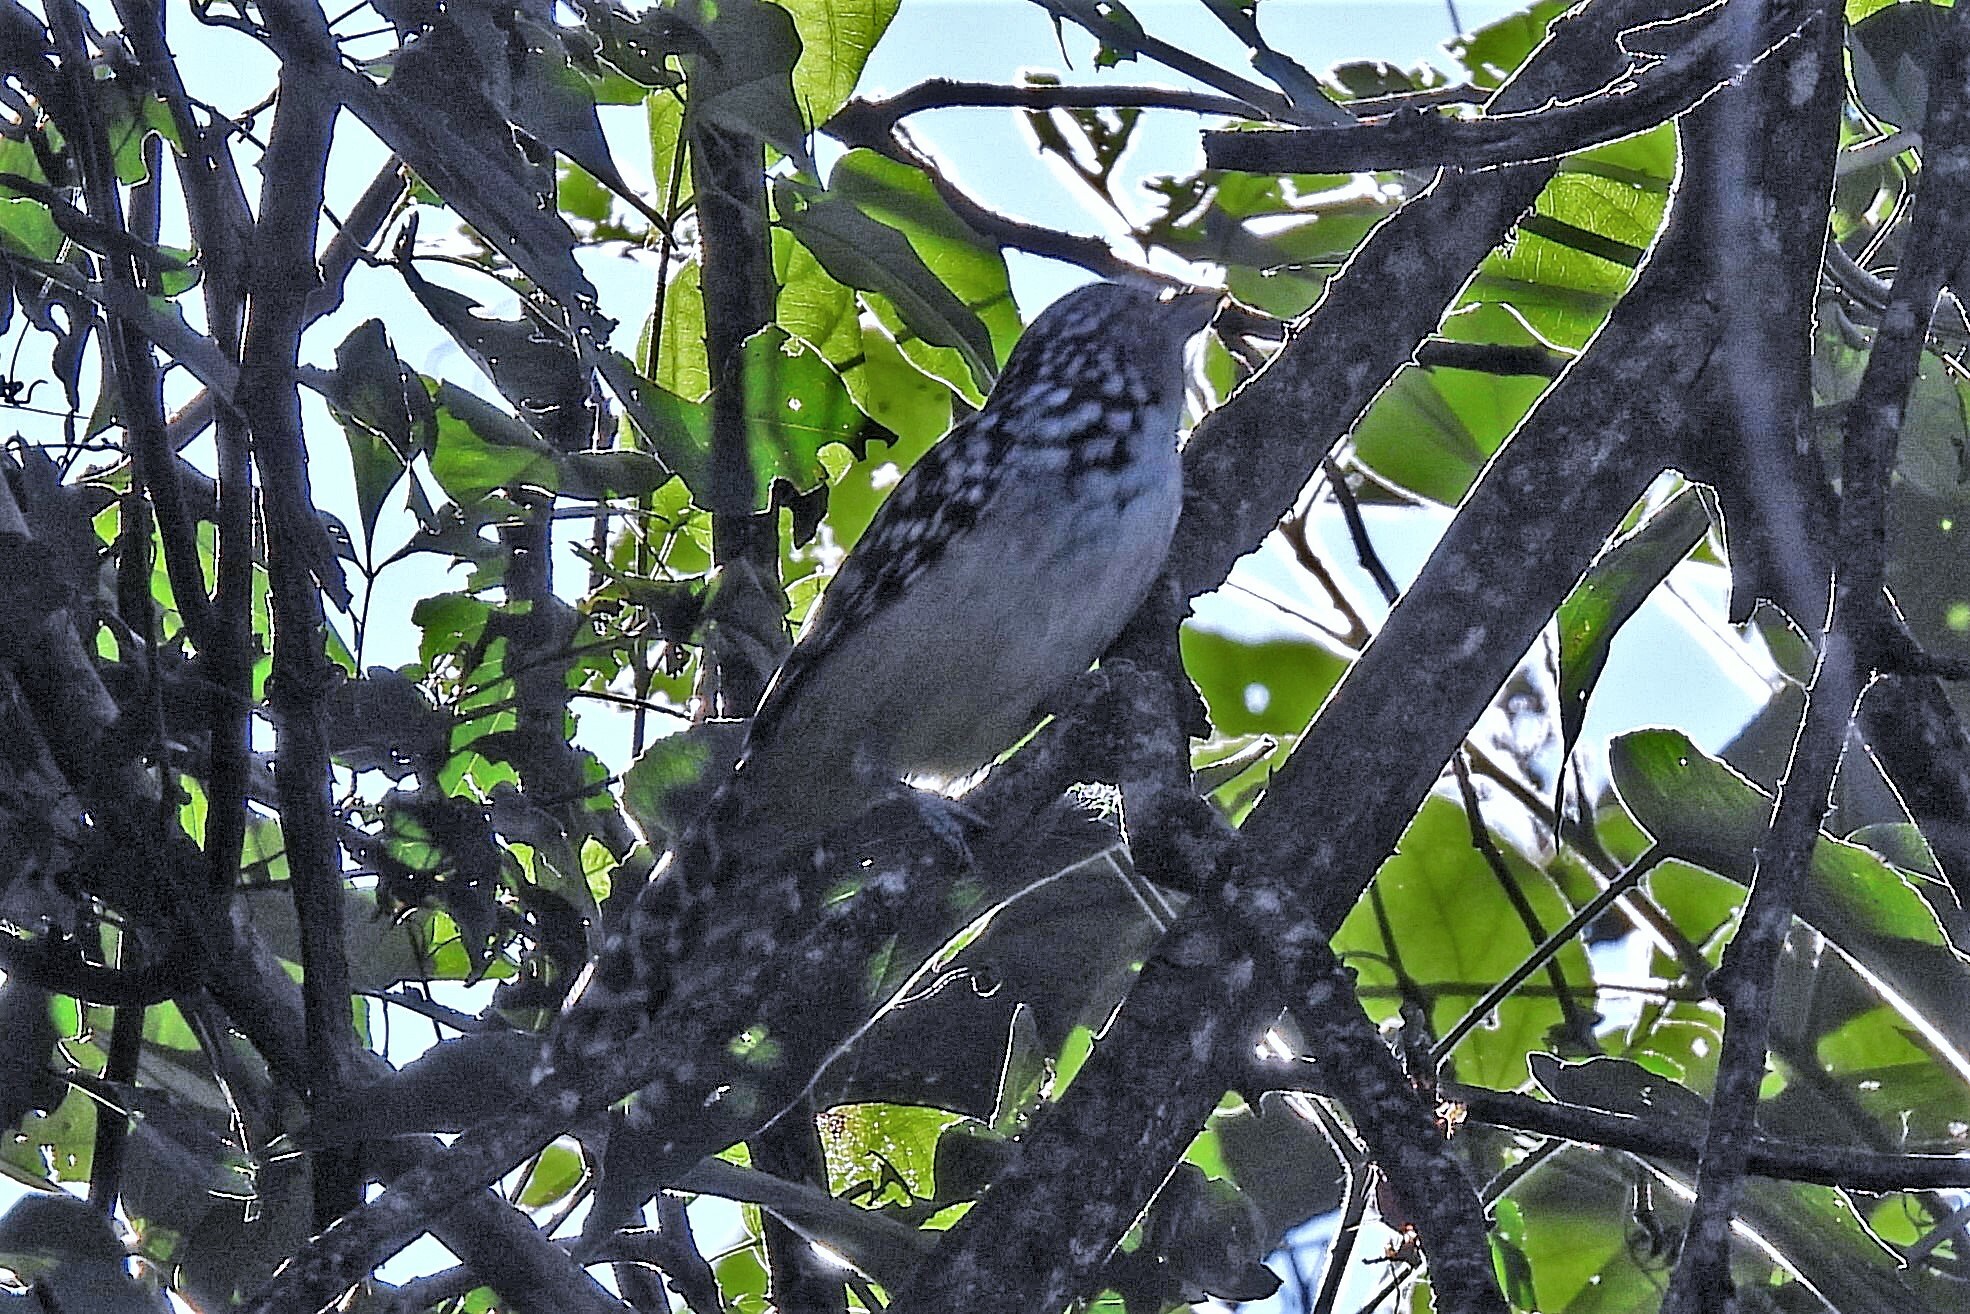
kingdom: Animalia
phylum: Chordata
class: Aves
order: Passeriformes
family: Thamnophilidae
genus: Hypoedaleus
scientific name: Hypoedaleus guttatus
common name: Spot-backed antshrike
